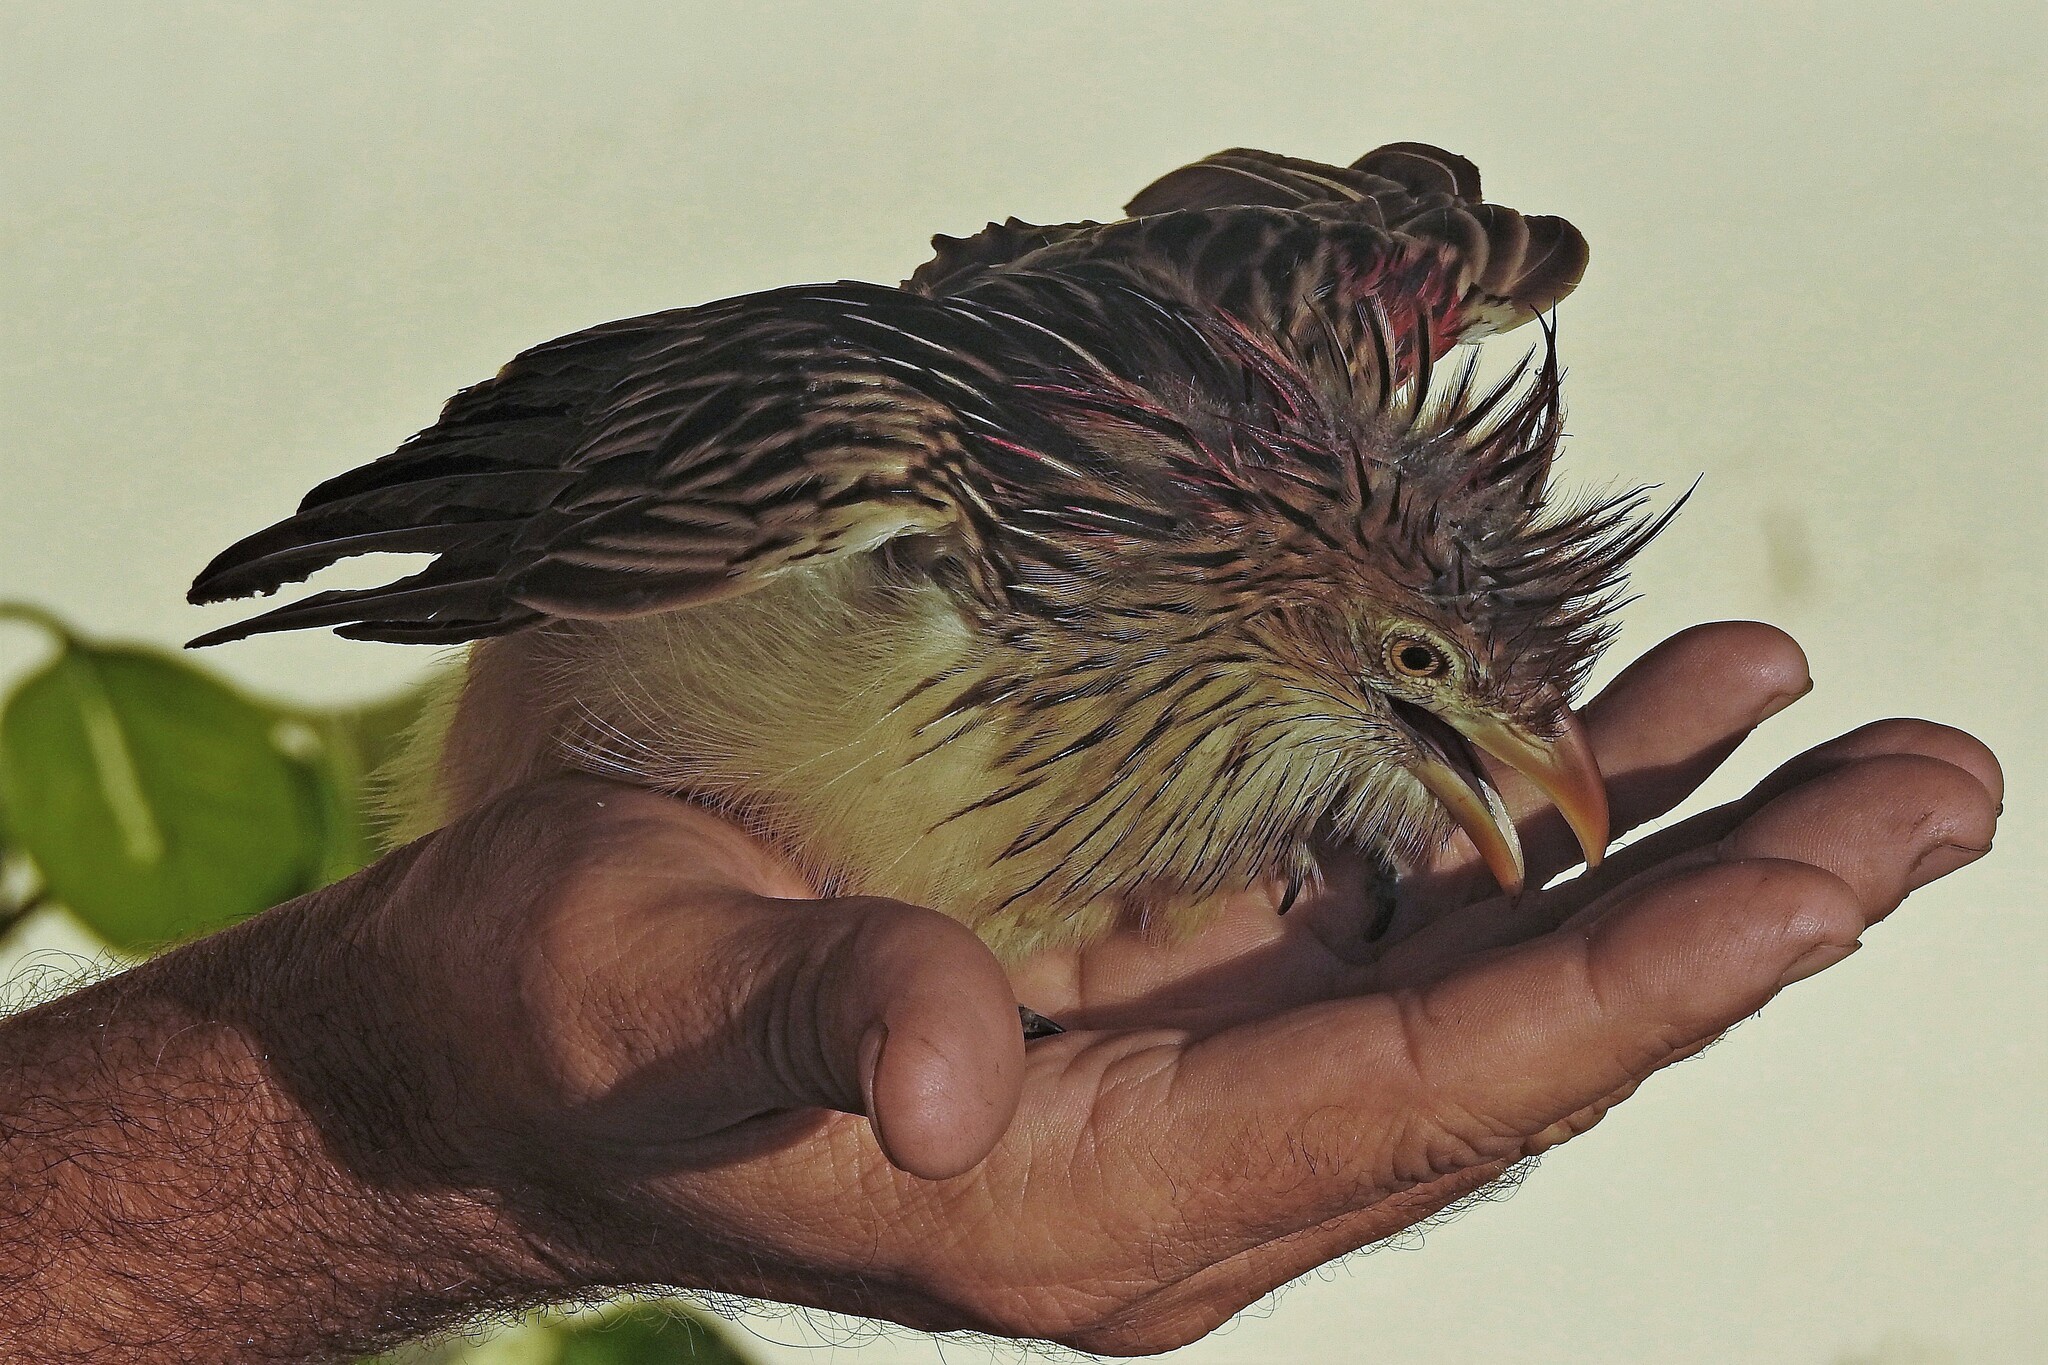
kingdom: Animalia
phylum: Chordata
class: Aves
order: Cuculiformes
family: Cuculidae
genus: Guira
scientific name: Guira guira
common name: Guira cuckoo
